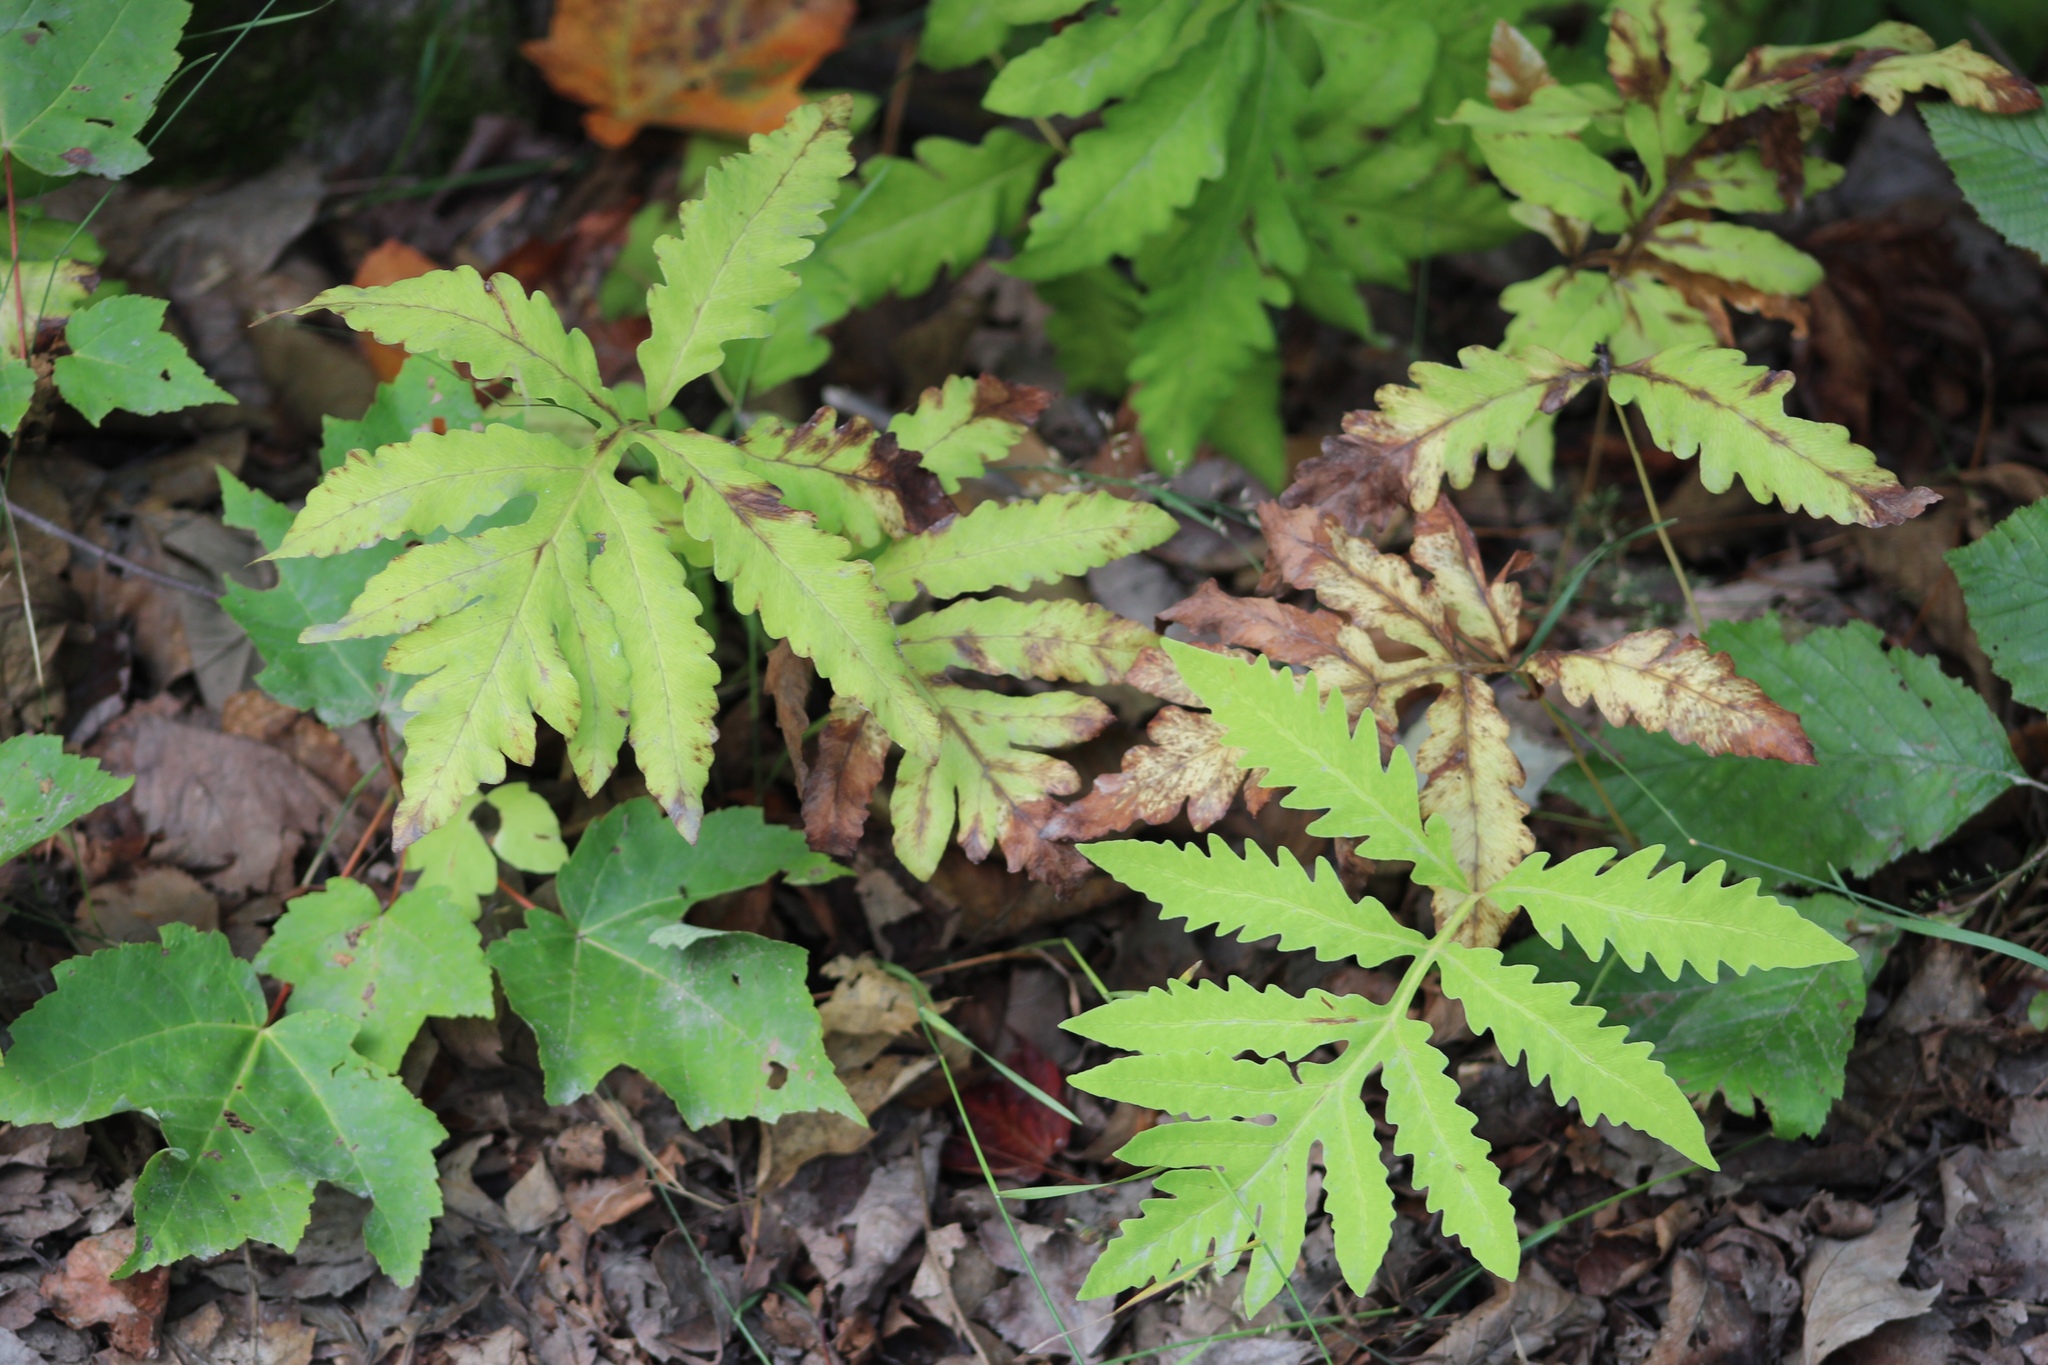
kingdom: Plantae
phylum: Tracheophyta
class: Polypodiopsida
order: Polypodiales
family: Onocleaceae
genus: Onoclea
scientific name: Onoclea sensibilis
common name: Sensitive fern
